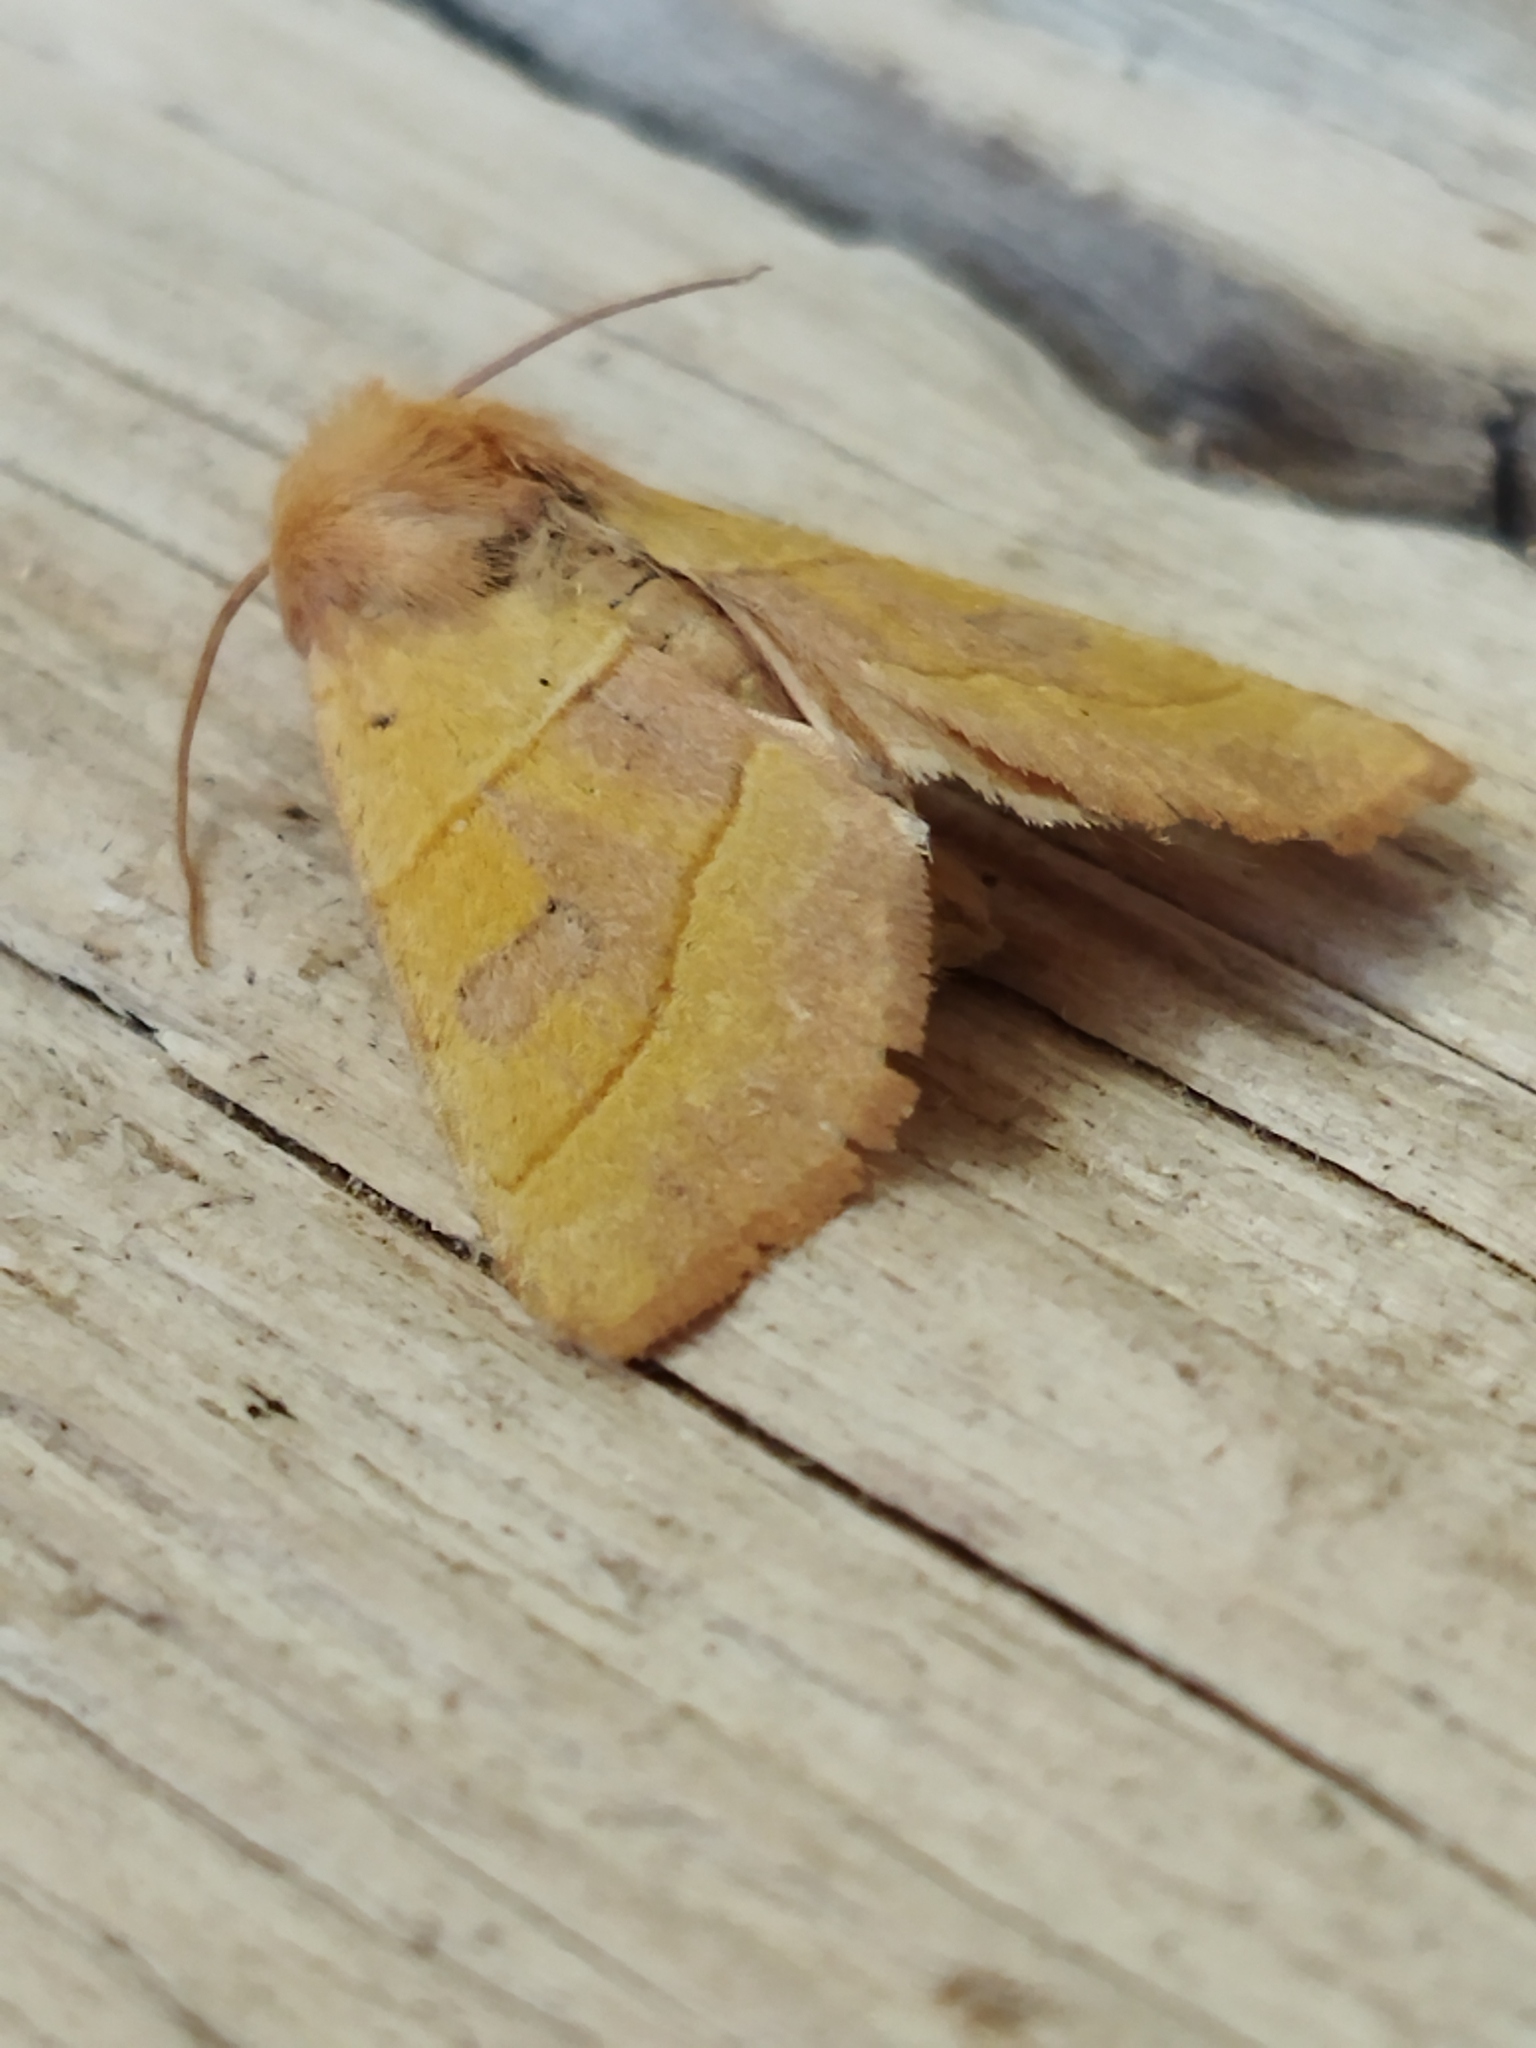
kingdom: Animalia
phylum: Arthropoda
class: Insecta
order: Lepidoptera
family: Noctuidae
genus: Atethmia
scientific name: Atethmia centrago
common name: Centre-barred sallow
